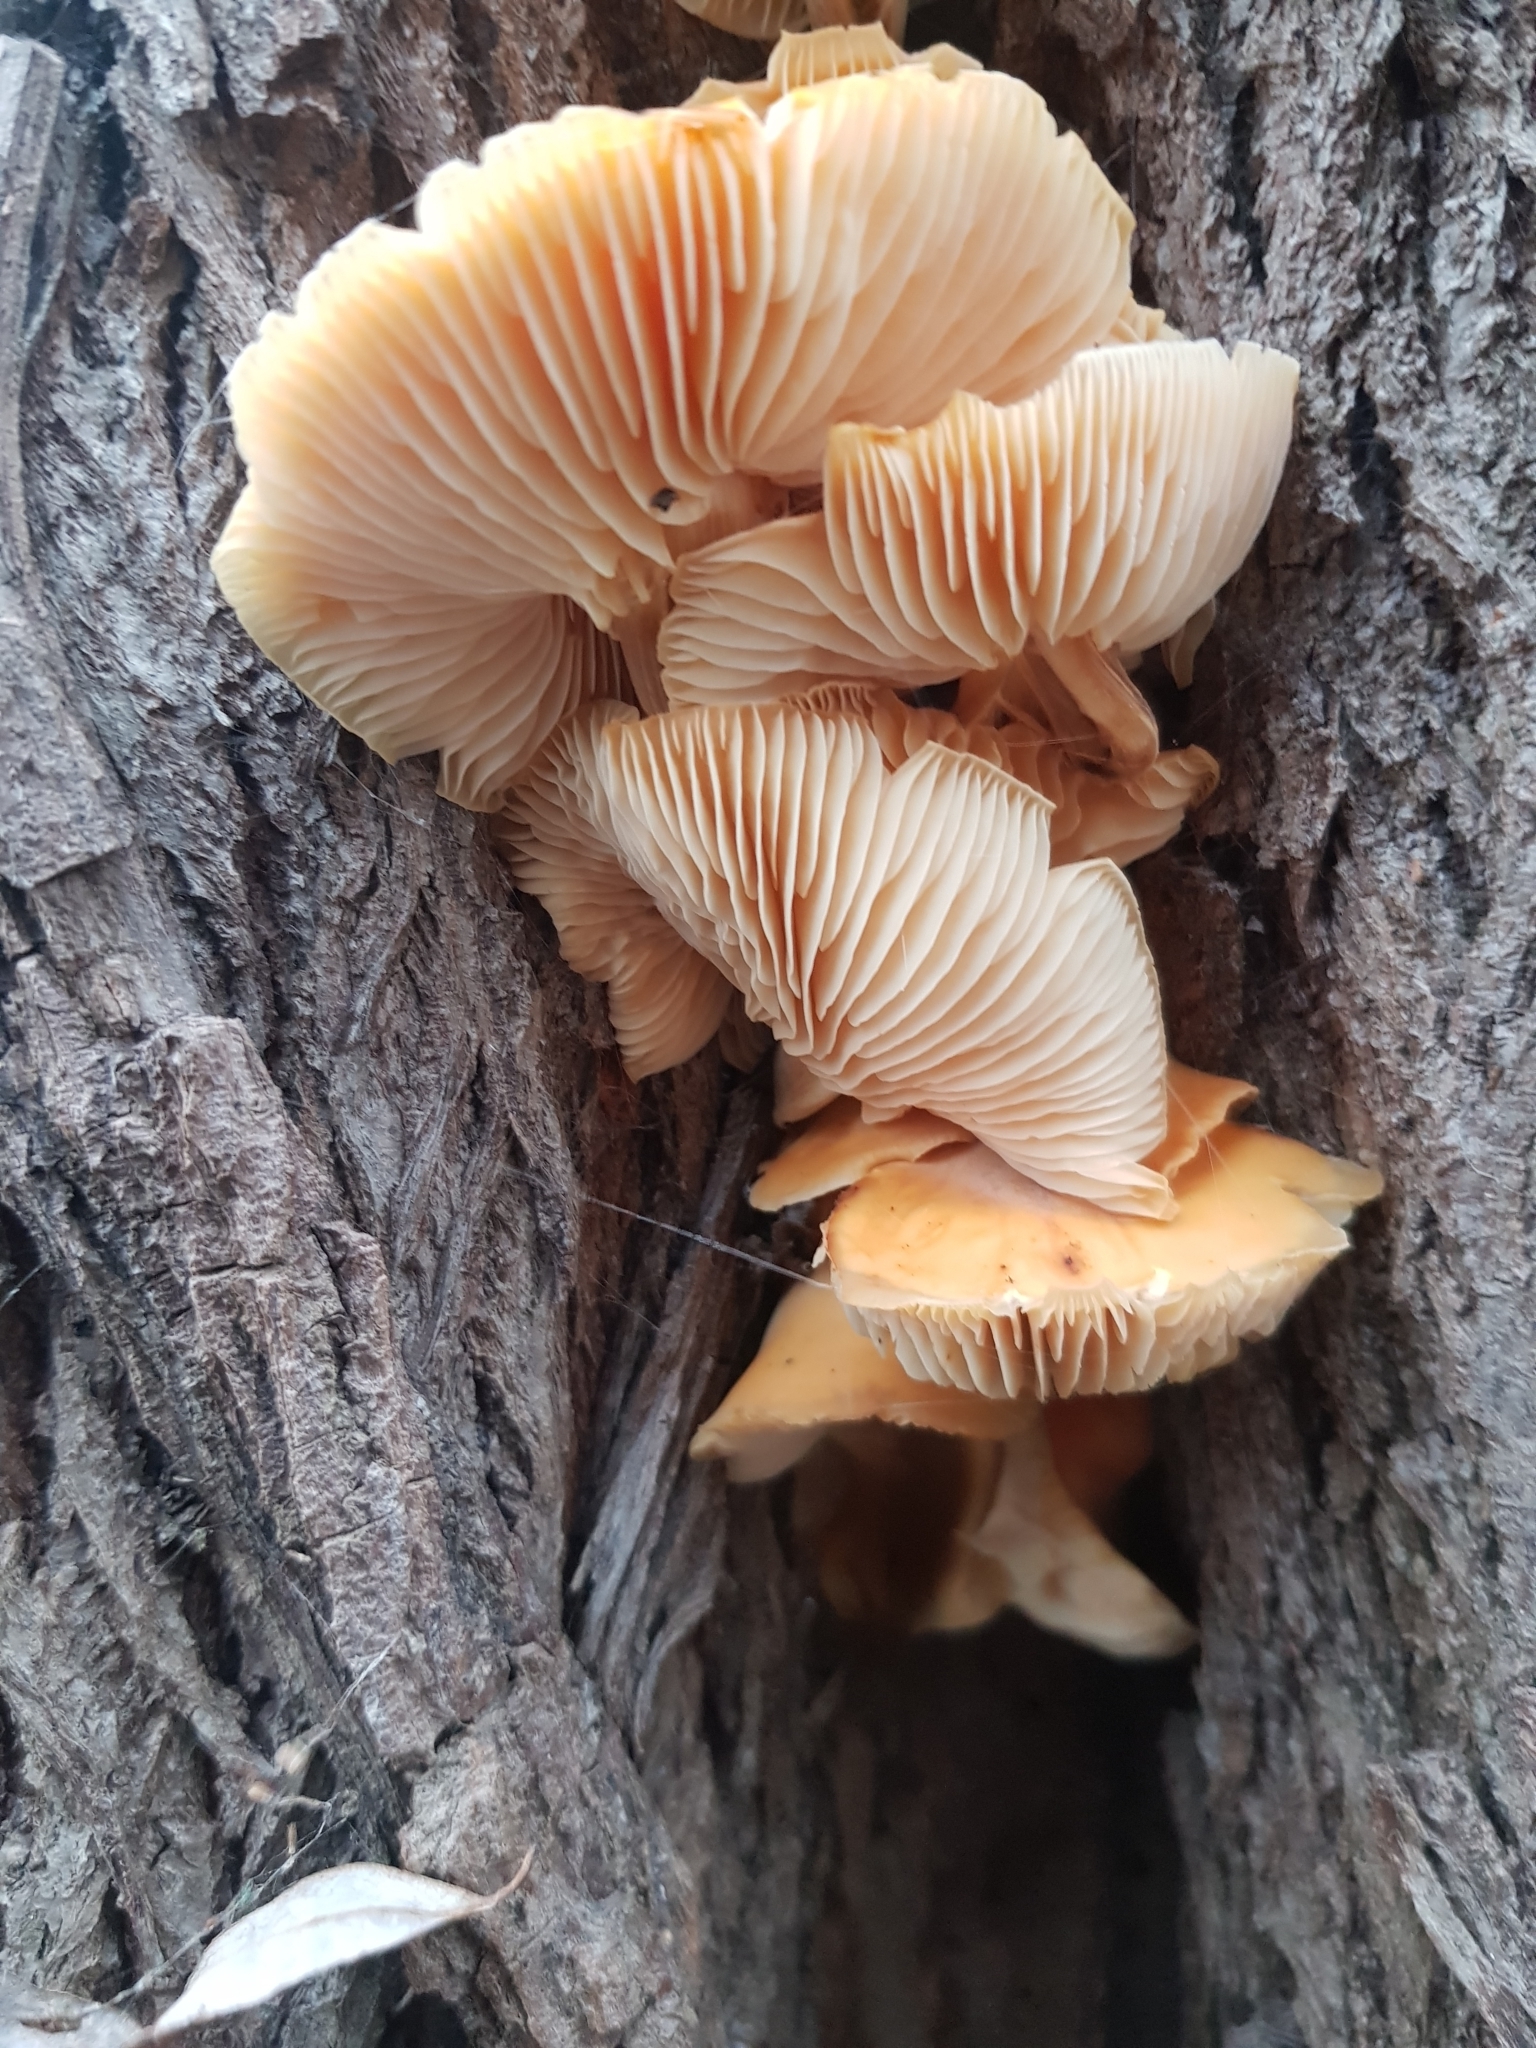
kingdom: Fungi
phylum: Basidiomycota
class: Agaricomycetes
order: Agaricales
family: Physalacriaceae
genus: Flammulina
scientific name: Flammulina
